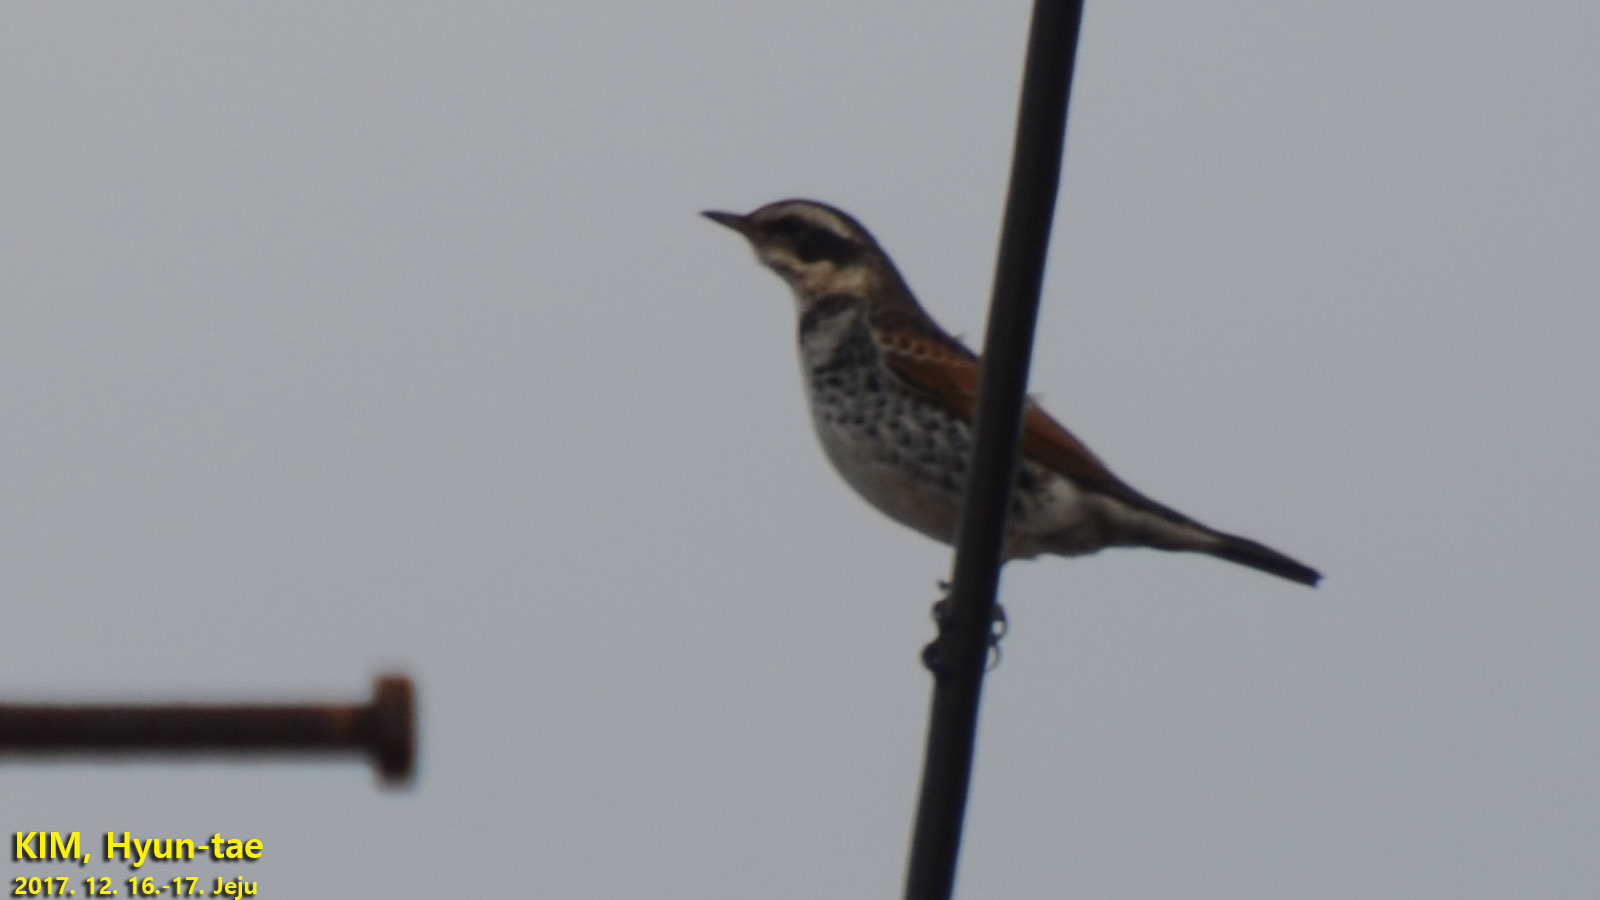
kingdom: Animalia
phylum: Chordata
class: Aves
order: Passeriformes
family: Turdidae
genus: Turdus
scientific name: Turdus eunomus
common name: Dusky thrush
